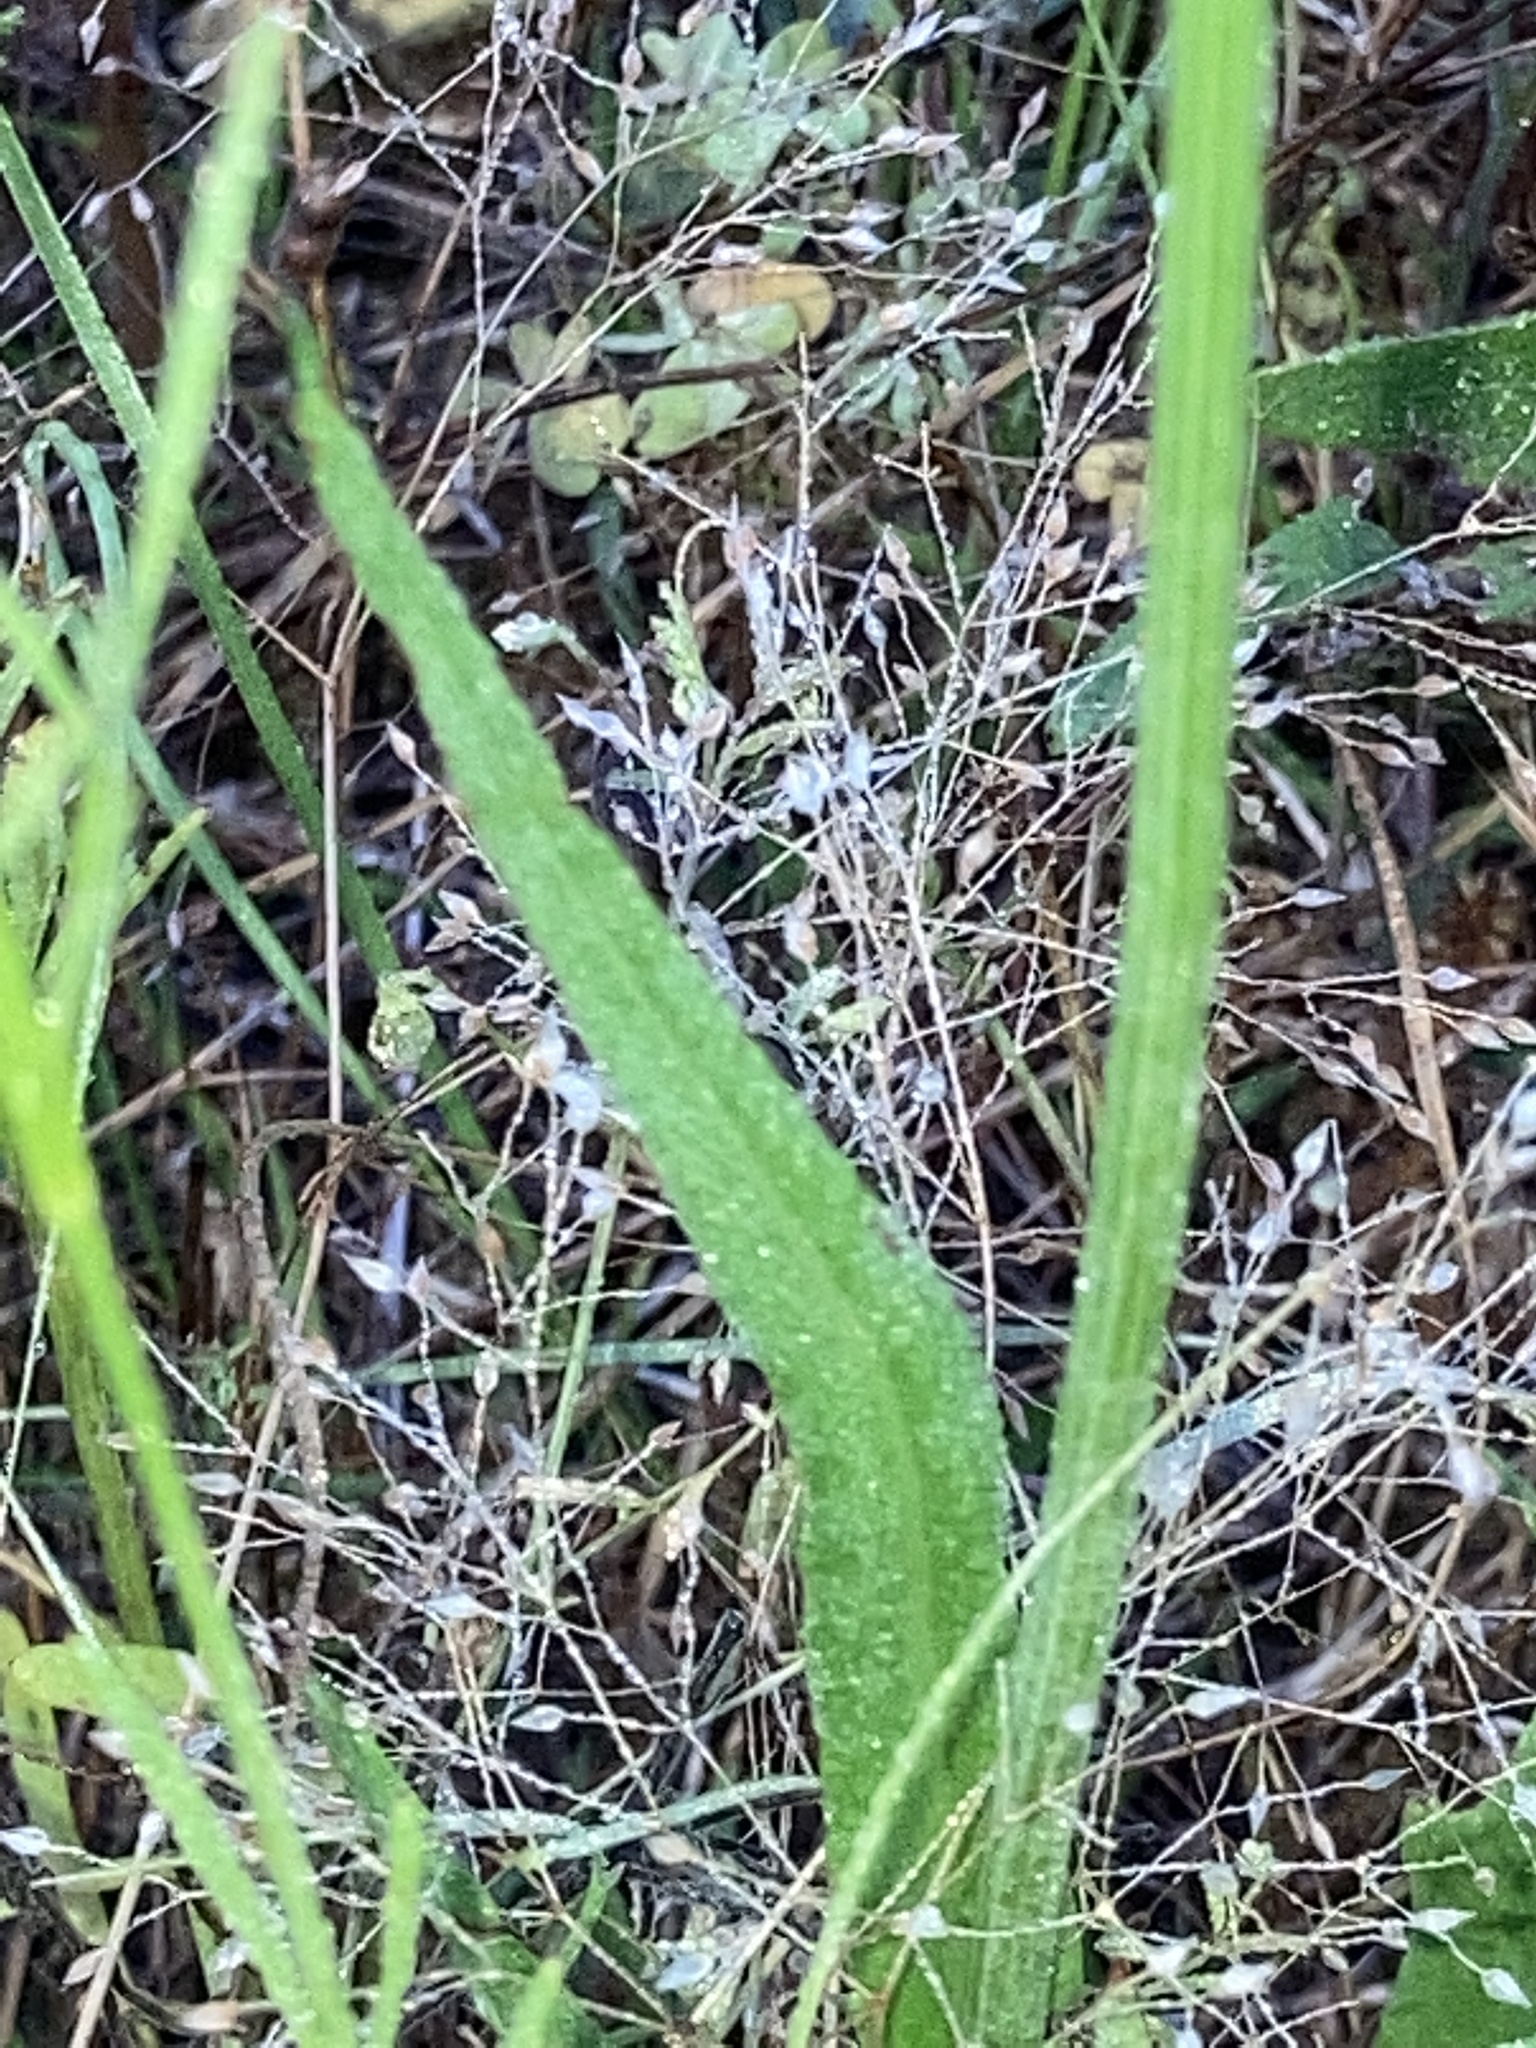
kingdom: Plantae
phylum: Tracheophyta
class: Magnoliopsida
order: Asterales
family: Asteraceae
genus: Pyrrhopappus
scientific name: Pyrrhopappus carolinianus
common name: Carolina desert-chicory
